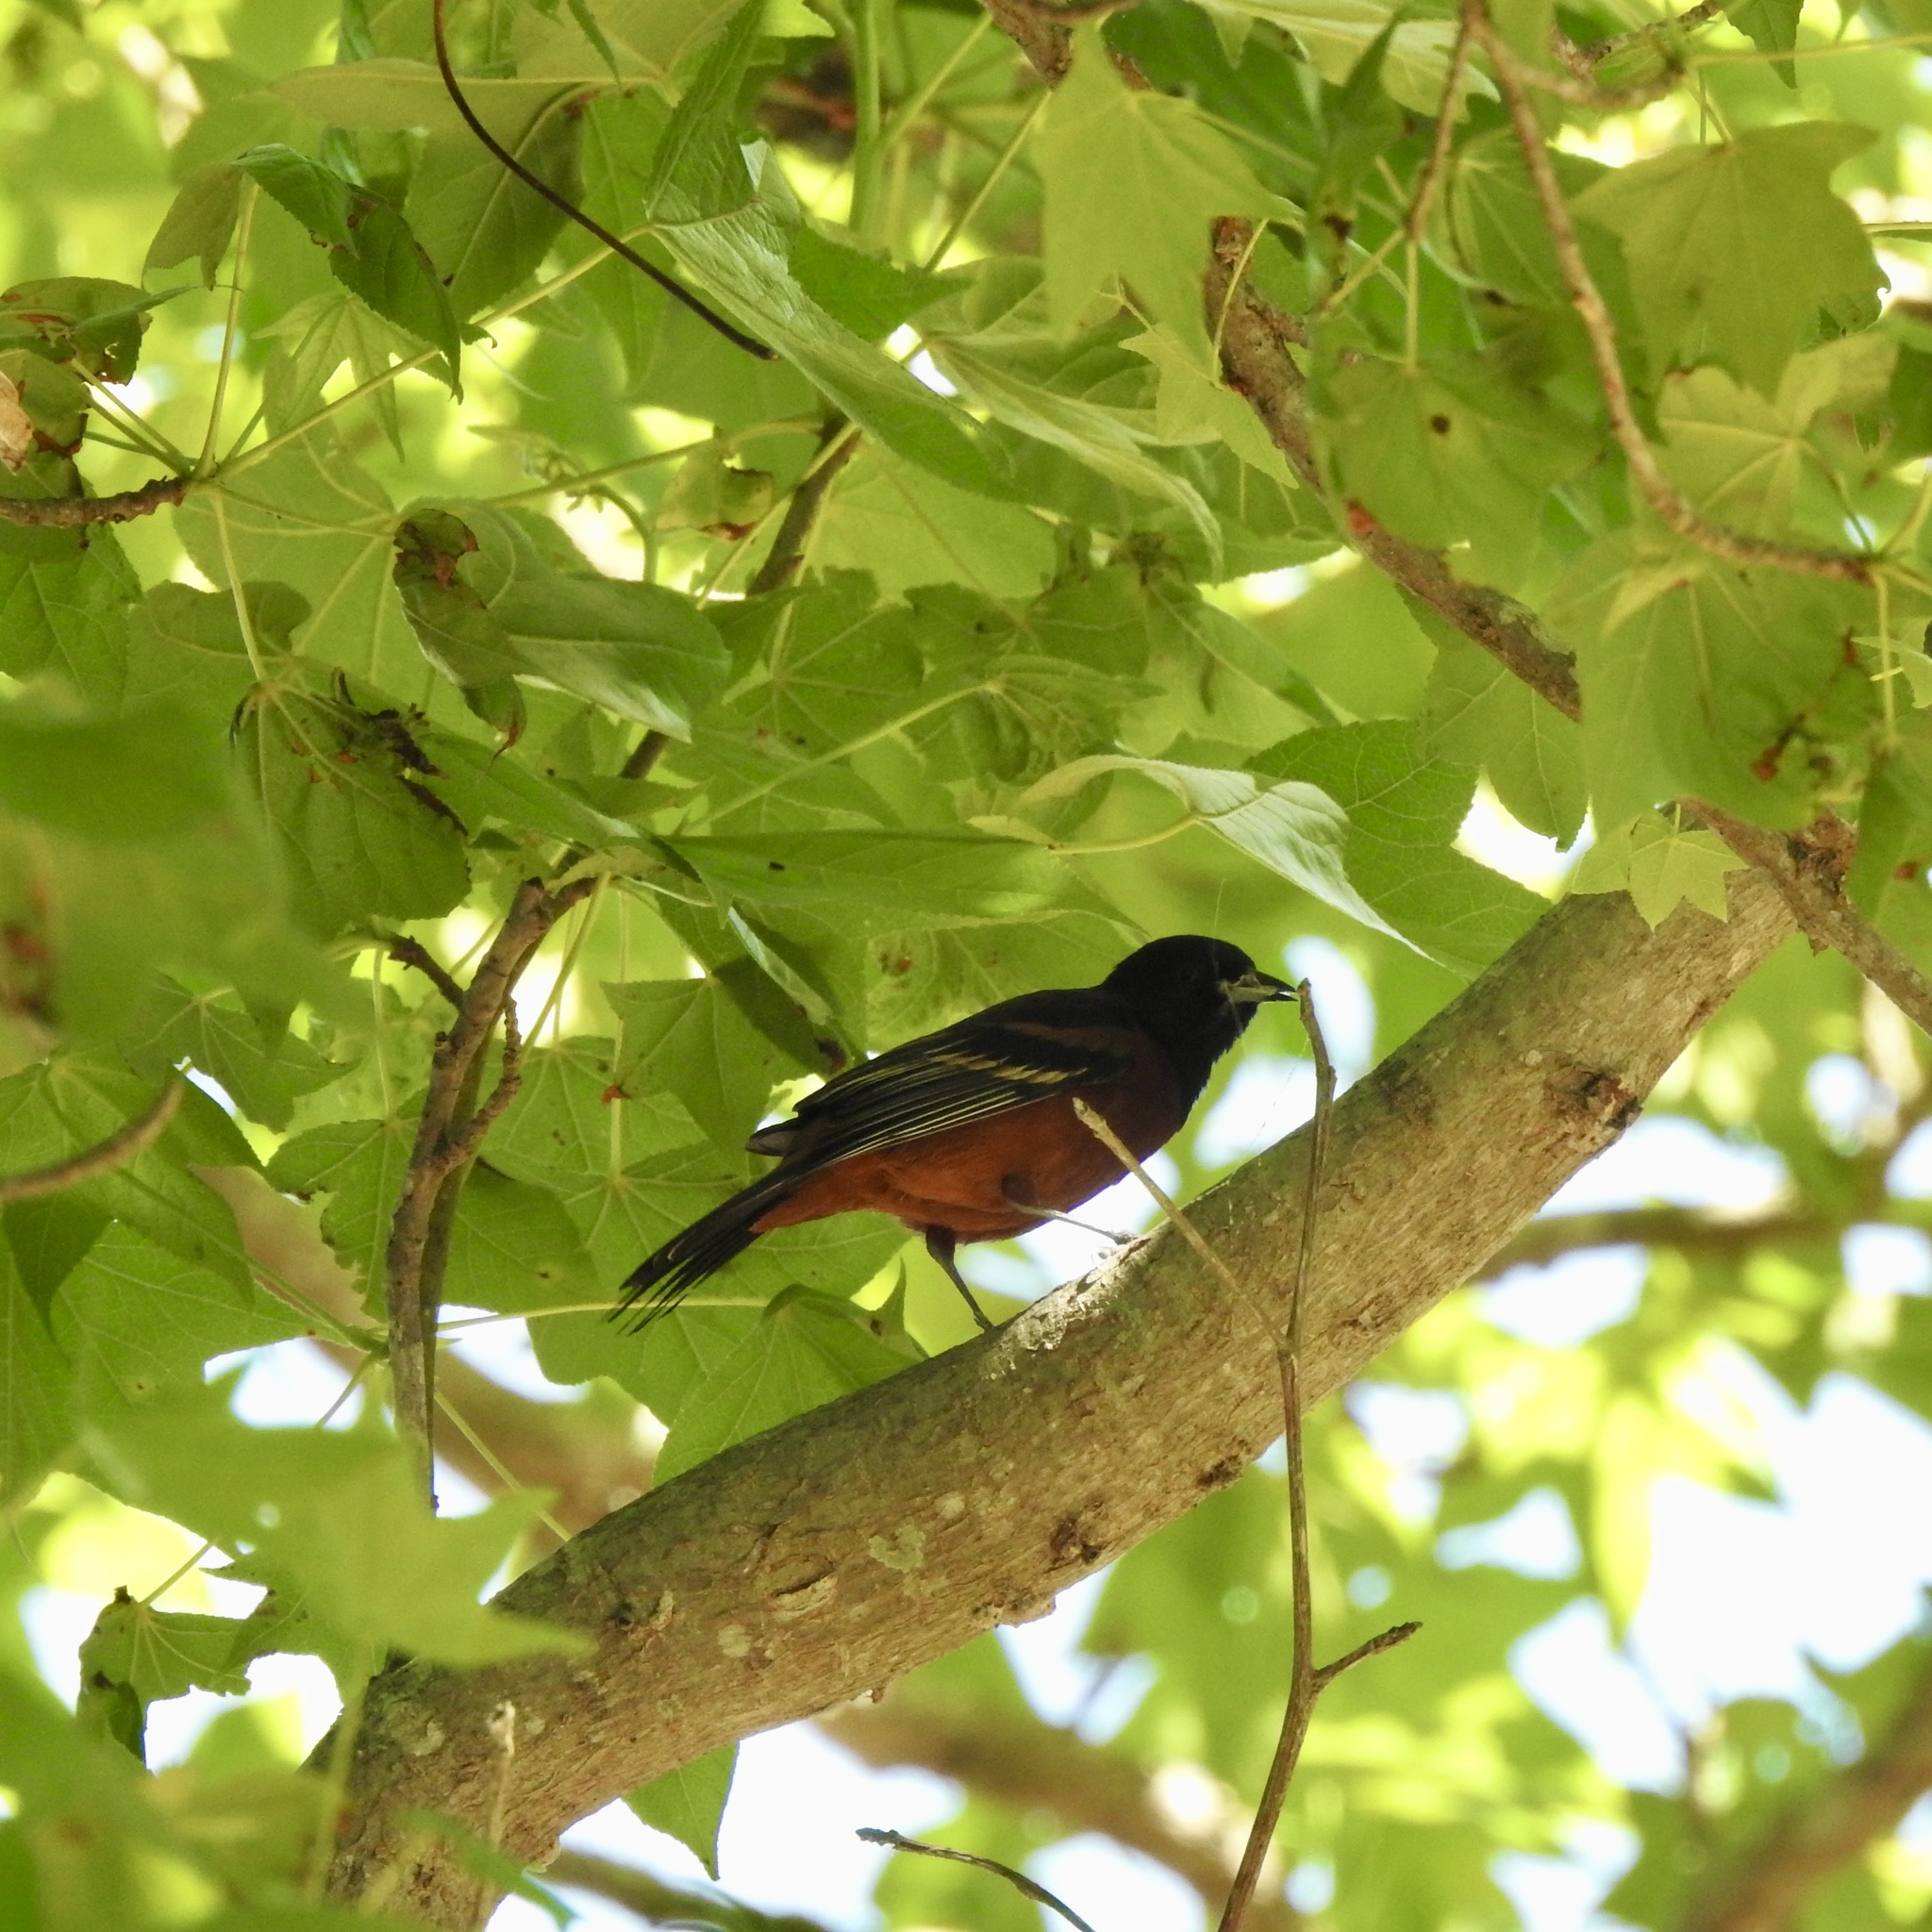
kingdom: Animalia
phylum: Chordata
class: Aves
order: Passeriformes
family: Icteridae
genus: Icterus
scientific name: Icterus spurius
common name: Orchard oriole
